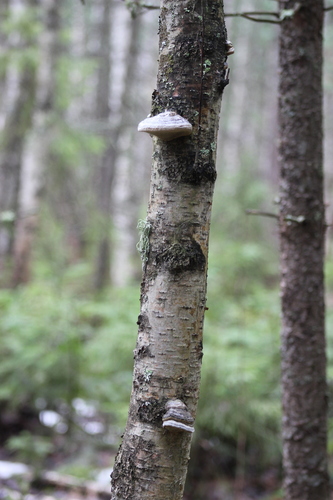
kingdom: Fungi
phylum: Basidiomycota
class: Agaricomycetes
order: Polyporales
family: Polyporaceae
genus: Fomes
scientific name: Fomes fomentarius
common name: Hoof fungus
